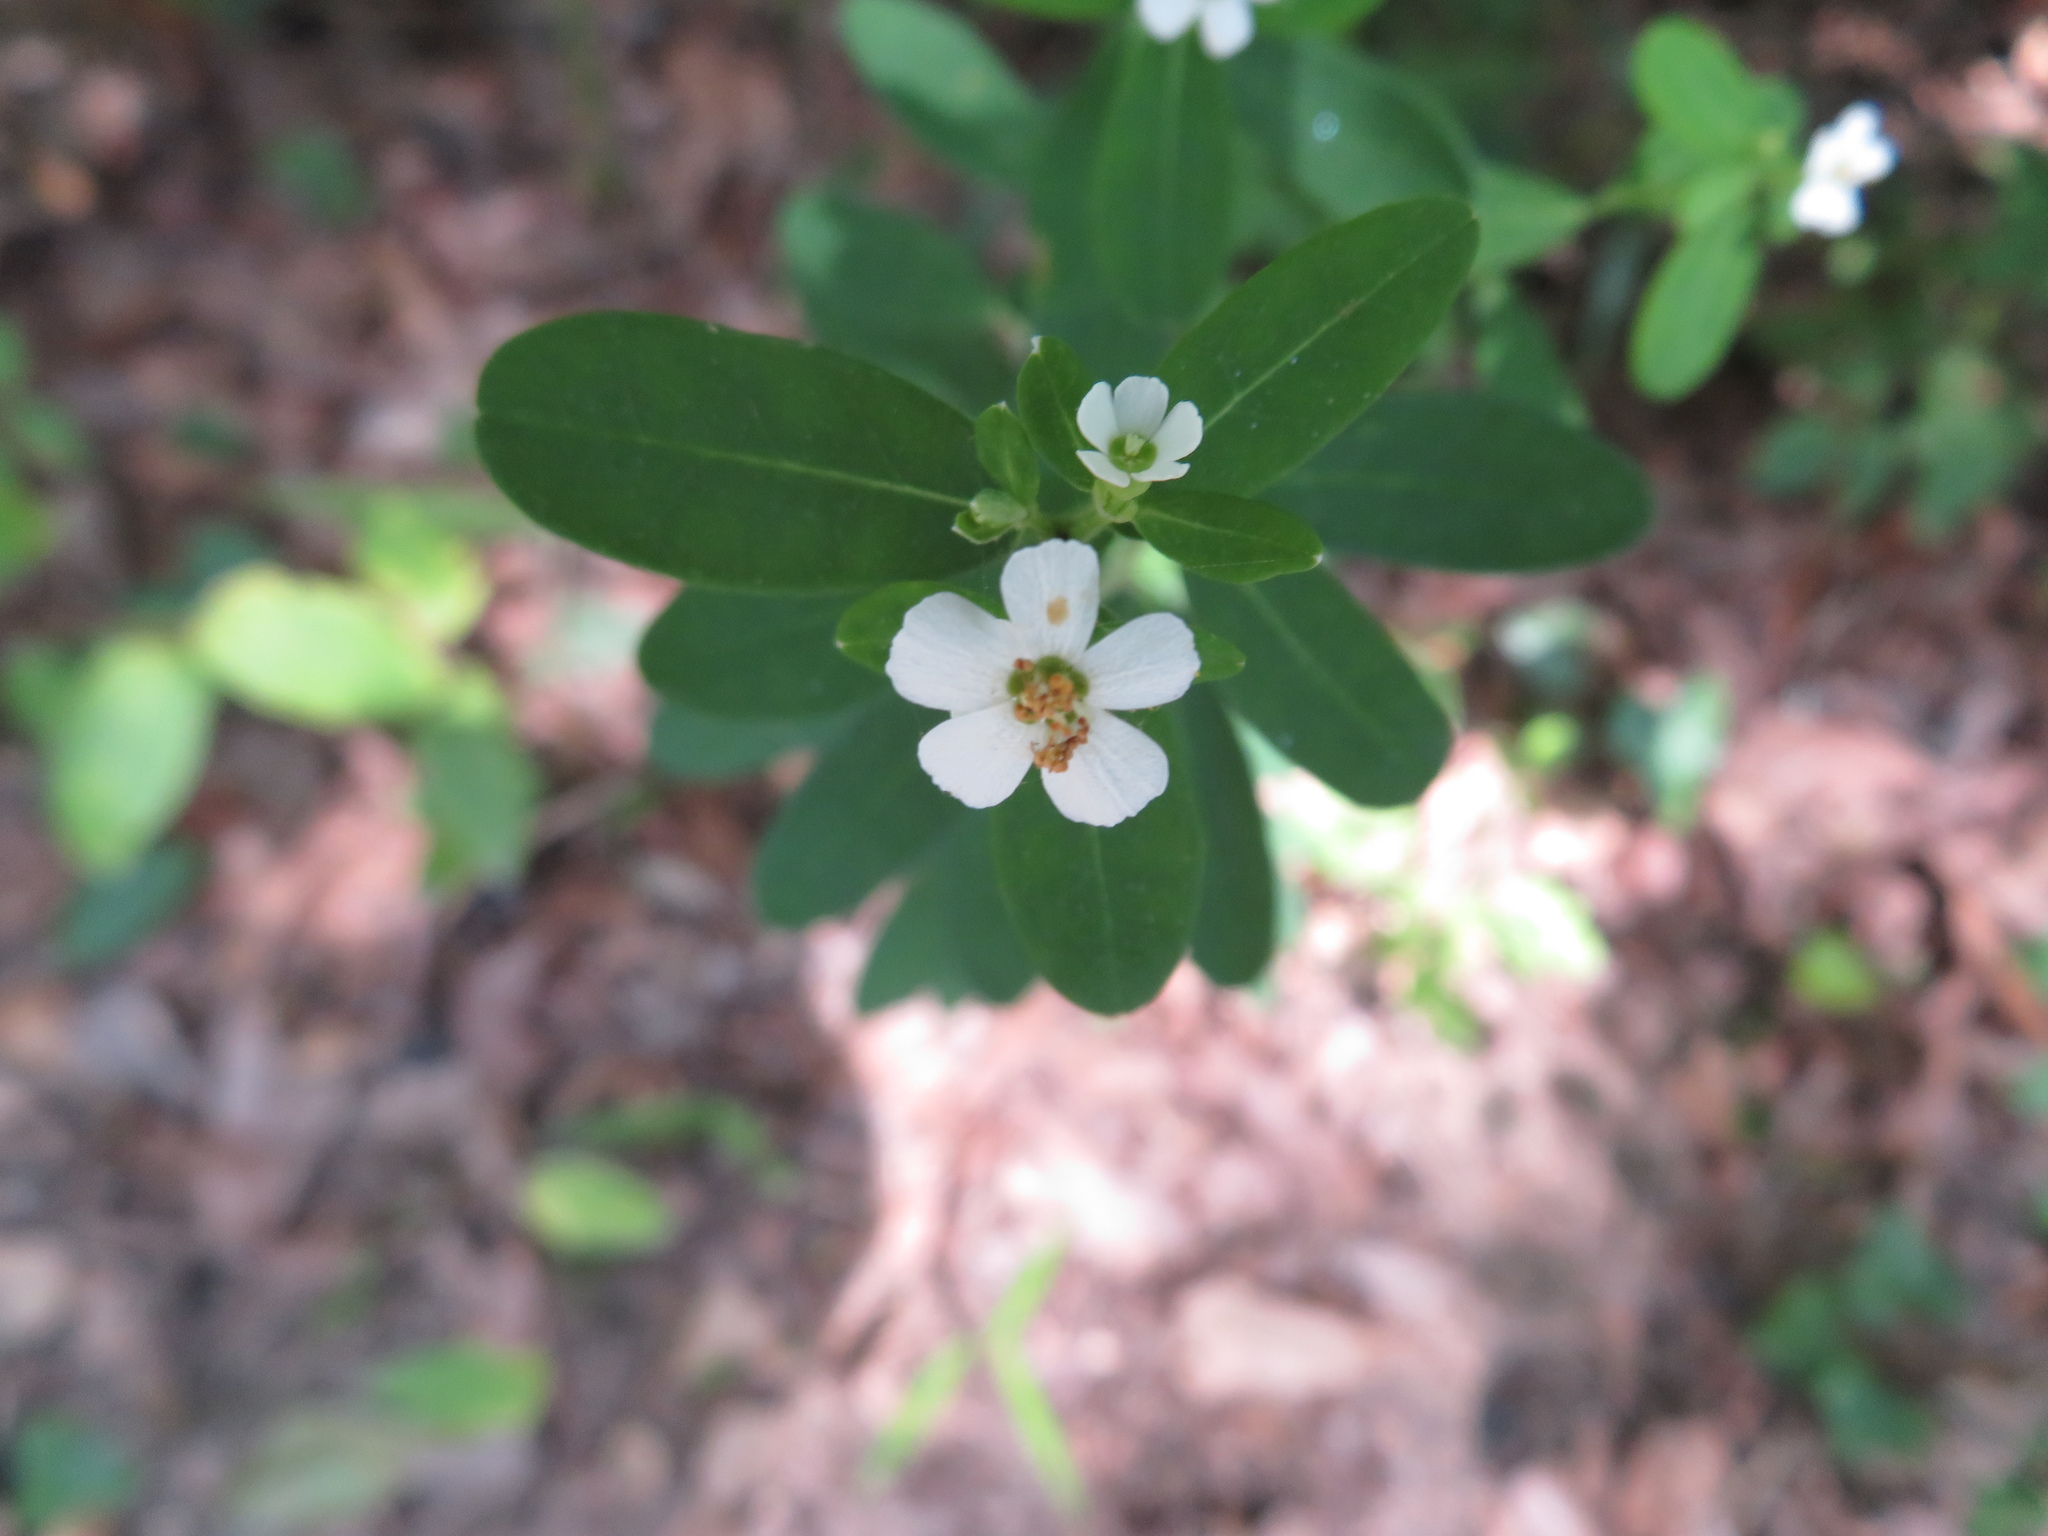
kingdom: Plantae
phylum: Tracheophyta
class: Magnoliopsida
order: Malpighiales
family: Euphorbiaceae
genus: Euphorbia
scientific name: Euphorbia corollata
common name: Flowering spurge
